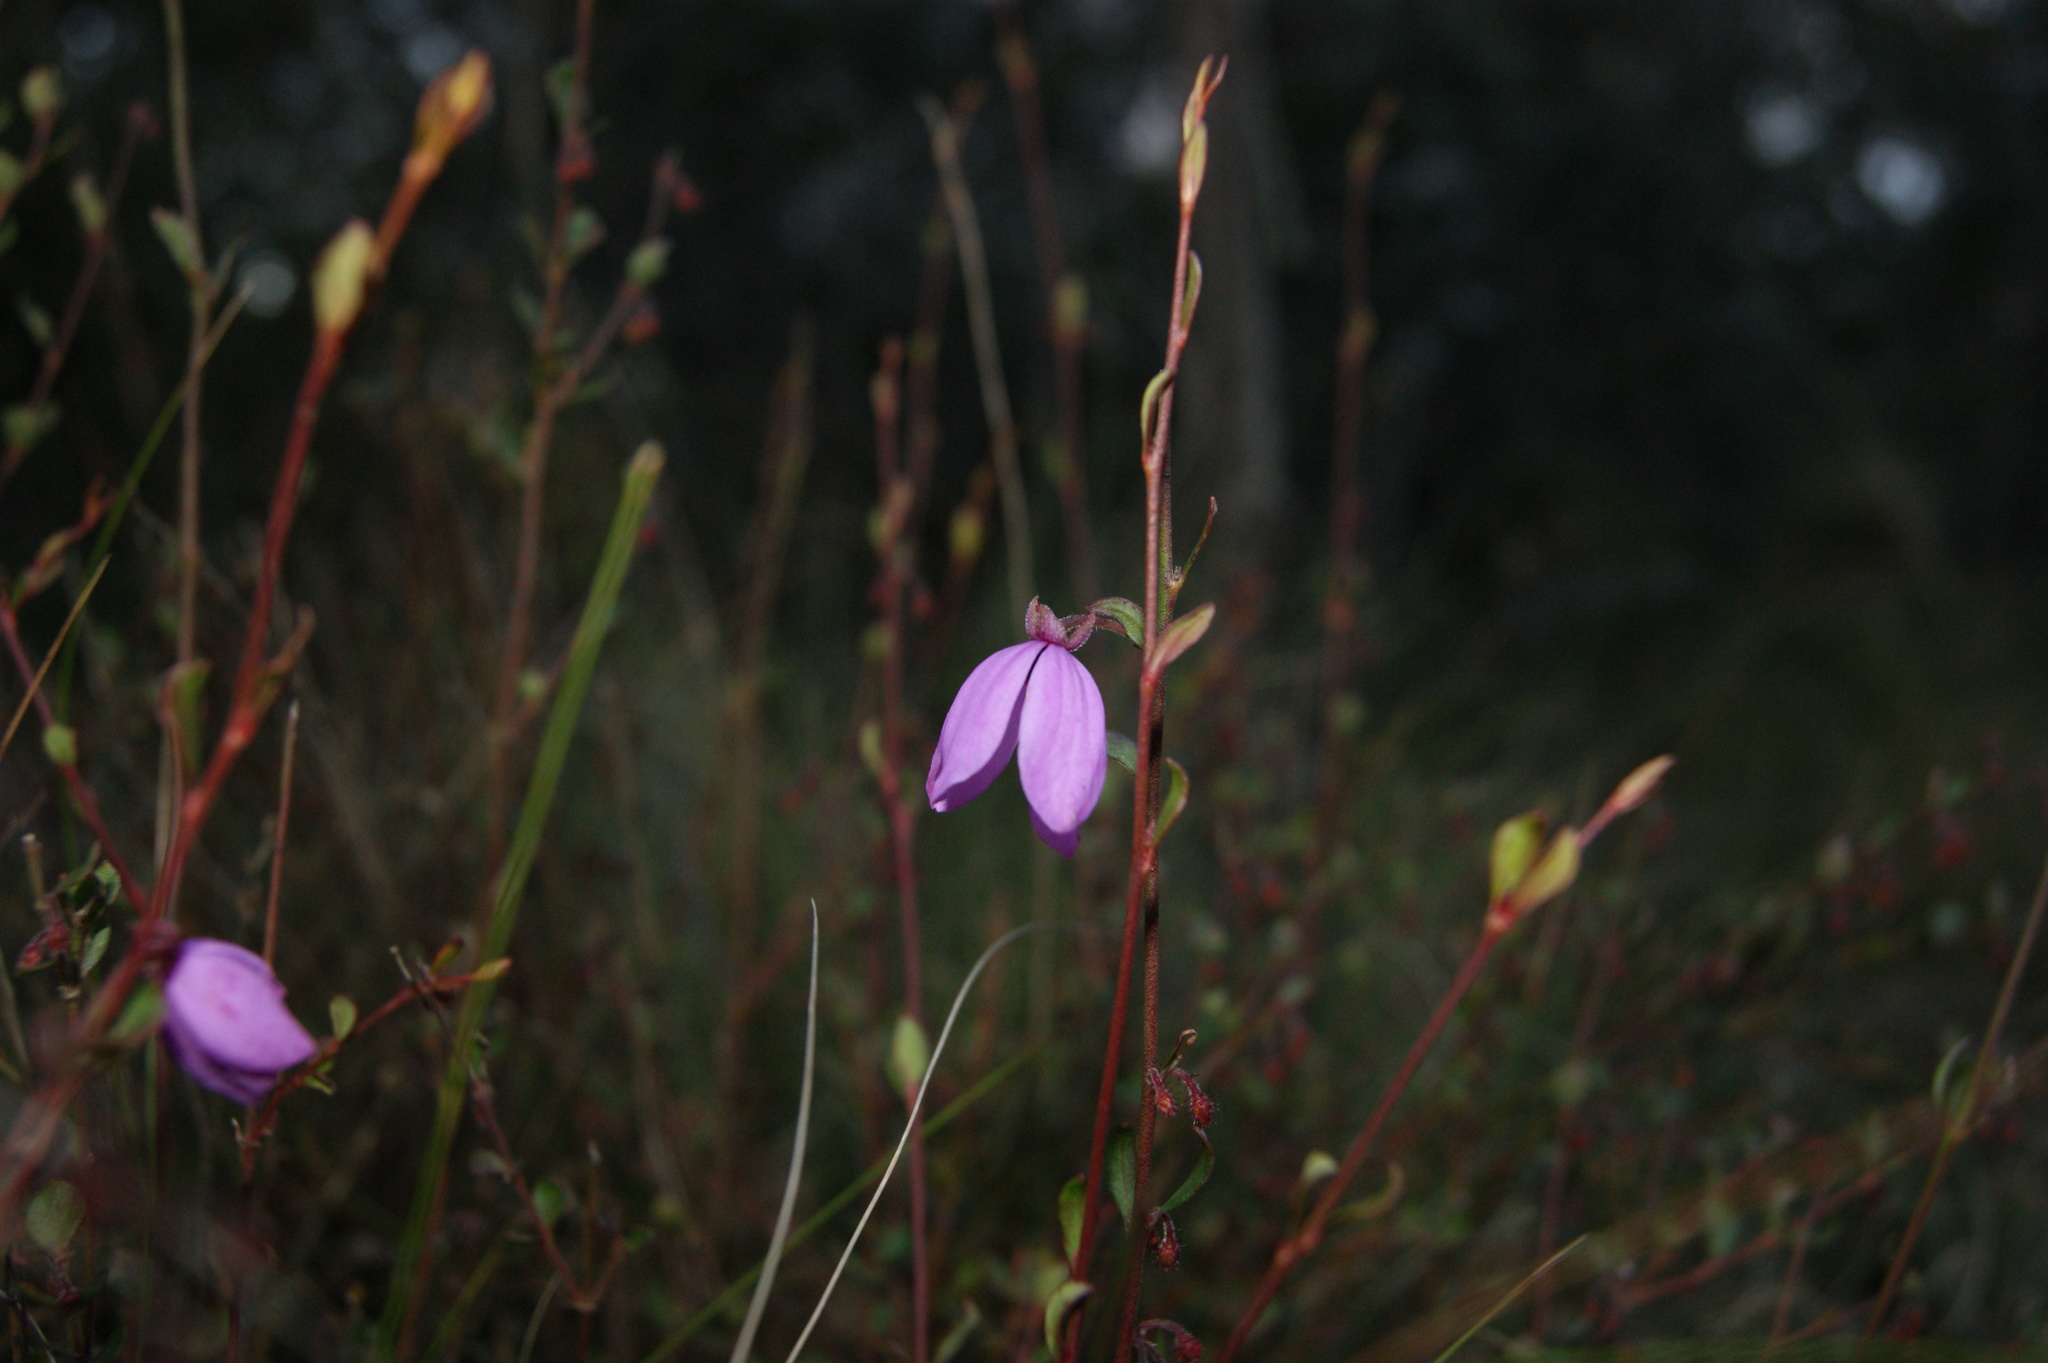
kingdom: Plantae
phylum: Tracheophyta
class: Magnoliopsida
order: Oxalidales
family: Elaeocarpaceae
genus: Tetratheca
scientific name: Tetratheca ciliata
